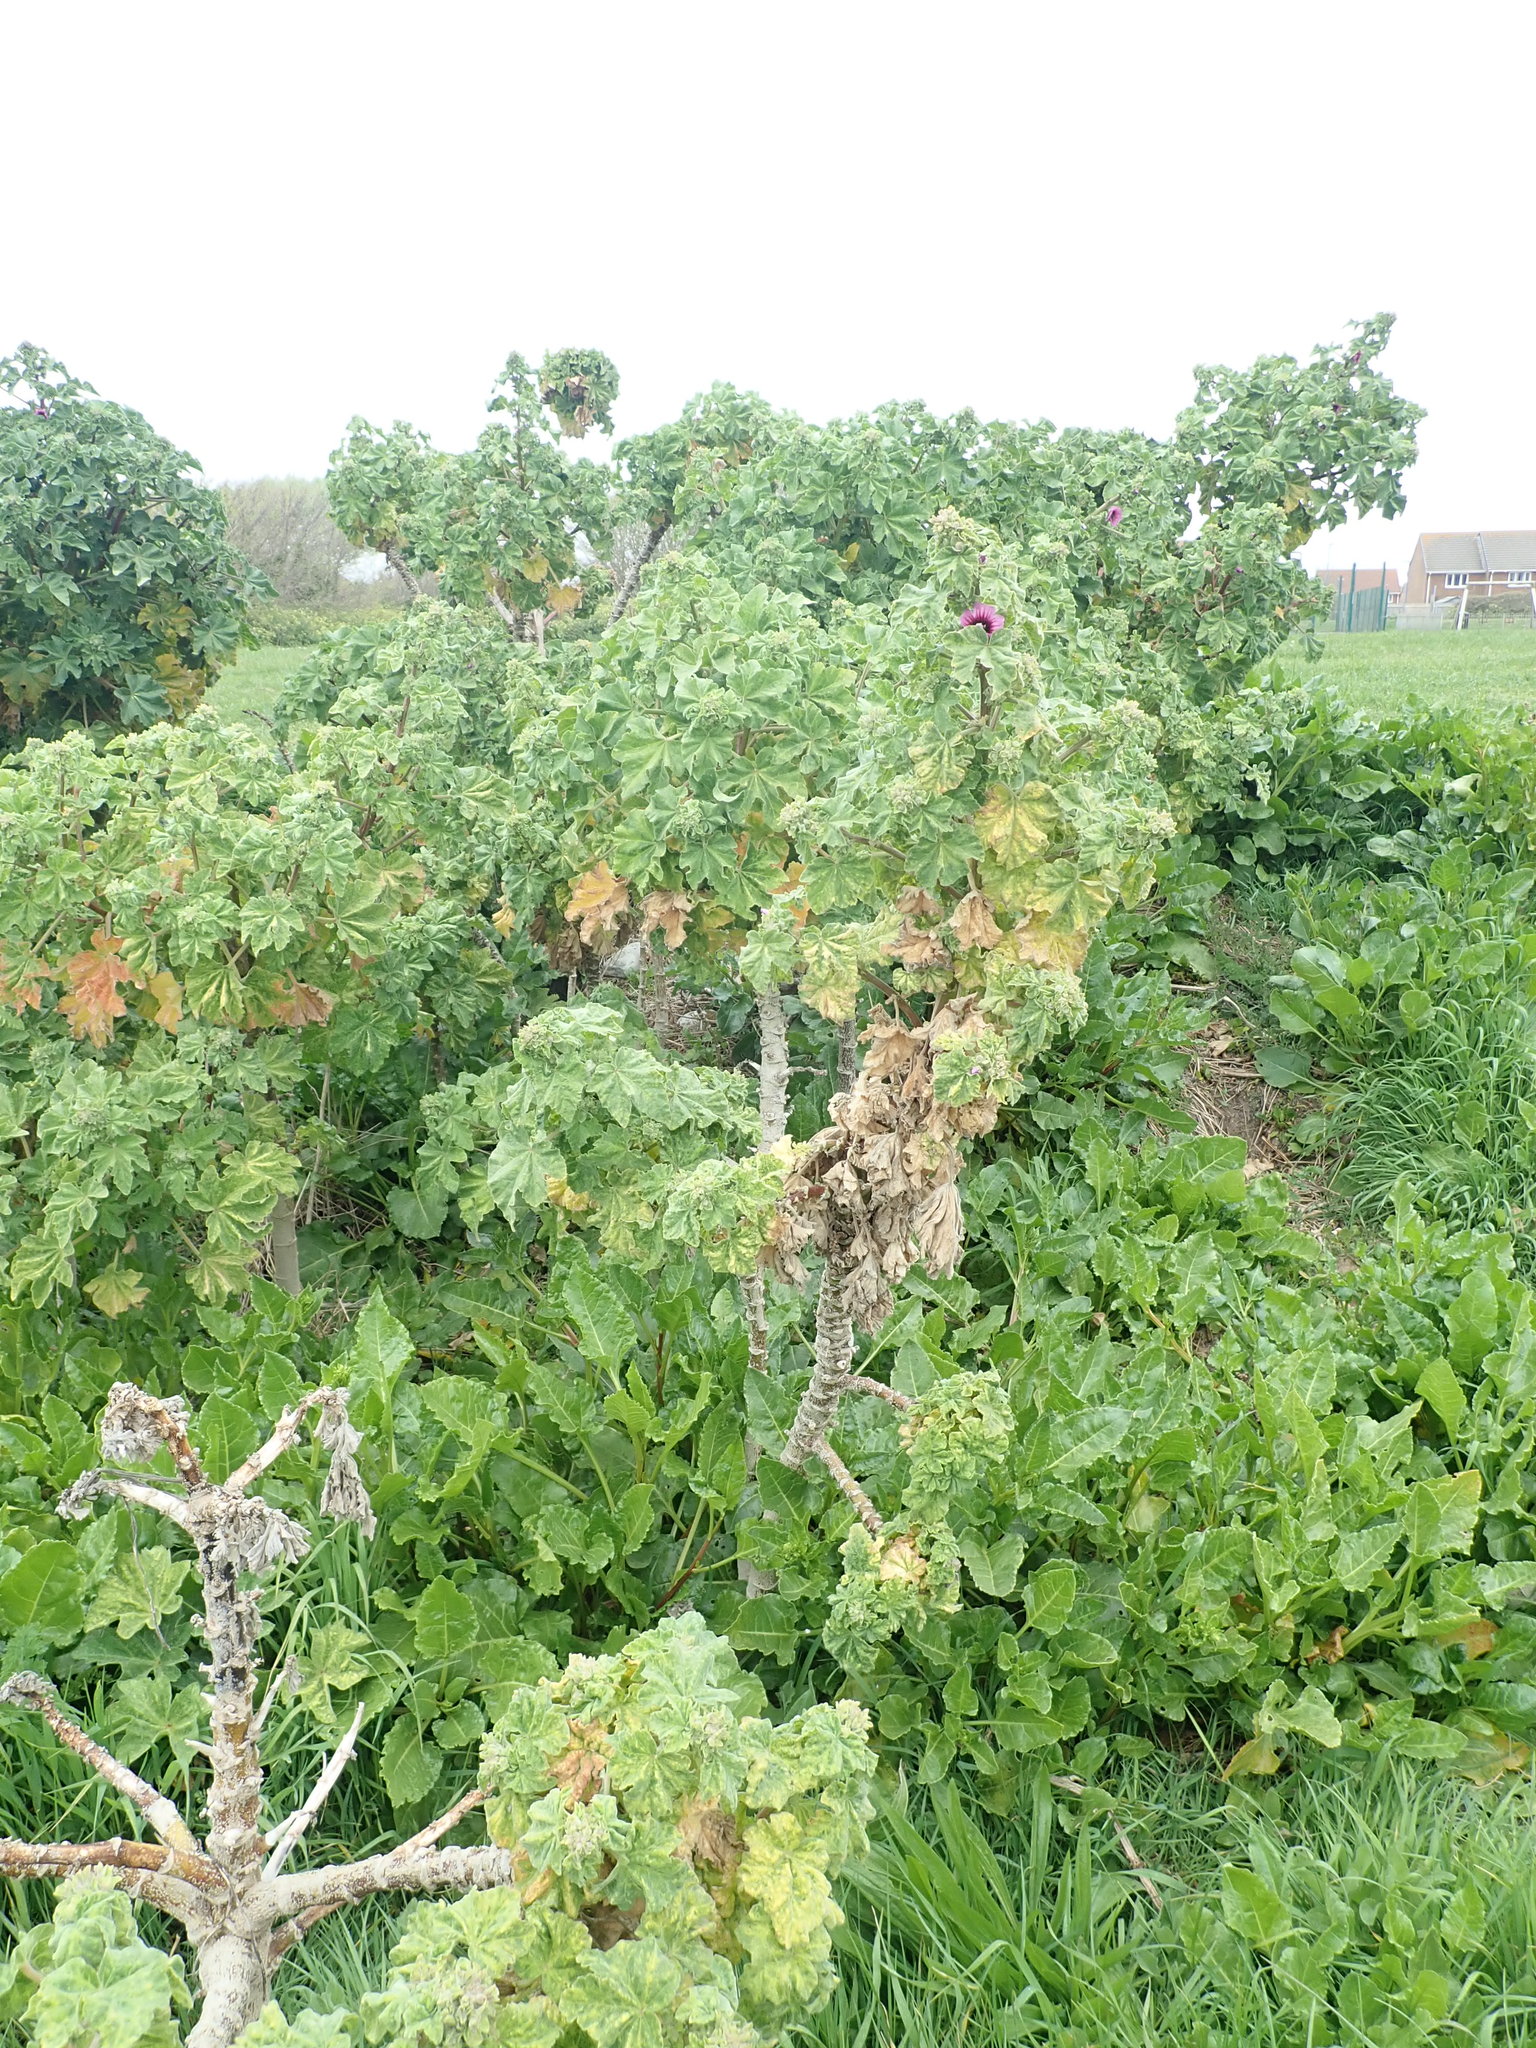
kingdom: Plantae
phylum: Tracheophyta
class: Magnoliopsida
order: Malvales
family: Malvaceae
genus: Malva
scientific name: Malva arborea
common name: Tree mallow
